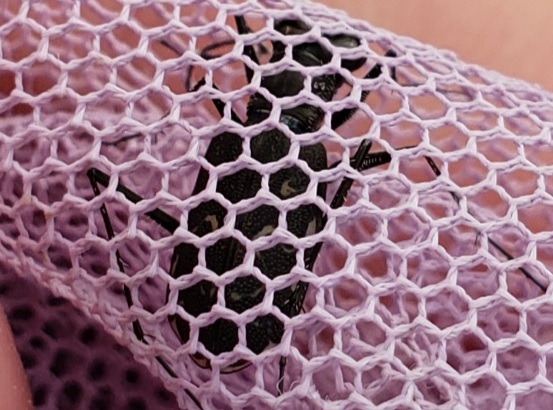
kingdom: Animalia
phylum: Arthropoda
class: Insecta
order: Coleoptera
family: Carabidae
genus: Cicindela
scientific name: Cicindela trifasciata
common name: Mudflat tiger beetle
